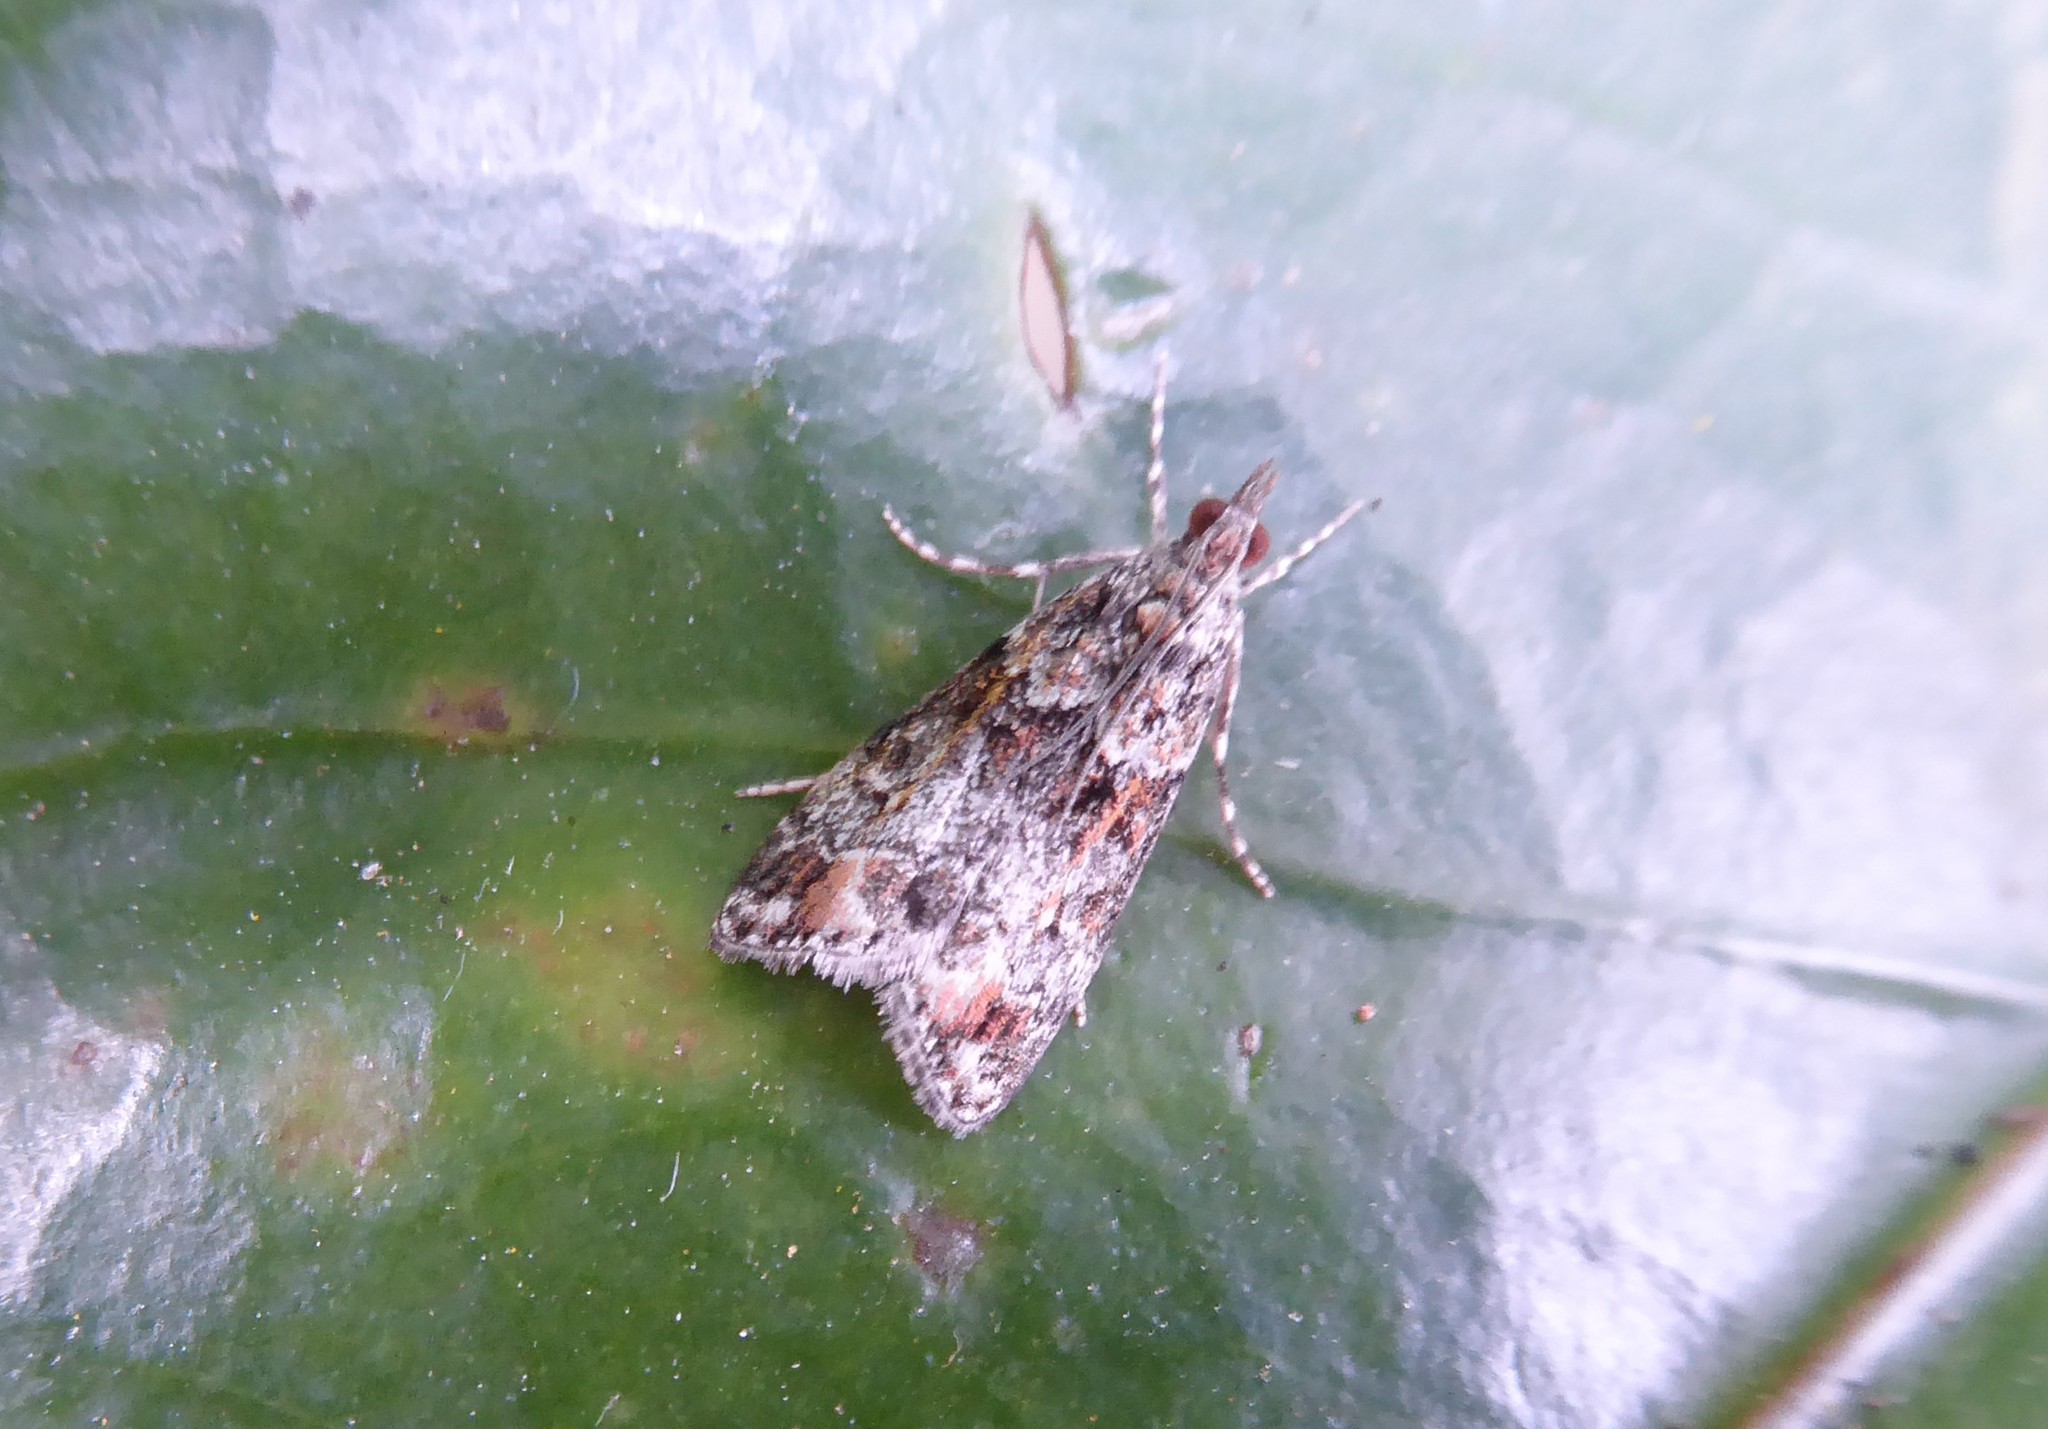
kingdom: Animalia
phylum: Arthropoda
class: Insecta
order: Lepidoptera
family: Crambidae
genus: Eudonia
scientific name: Eudonia minualis
